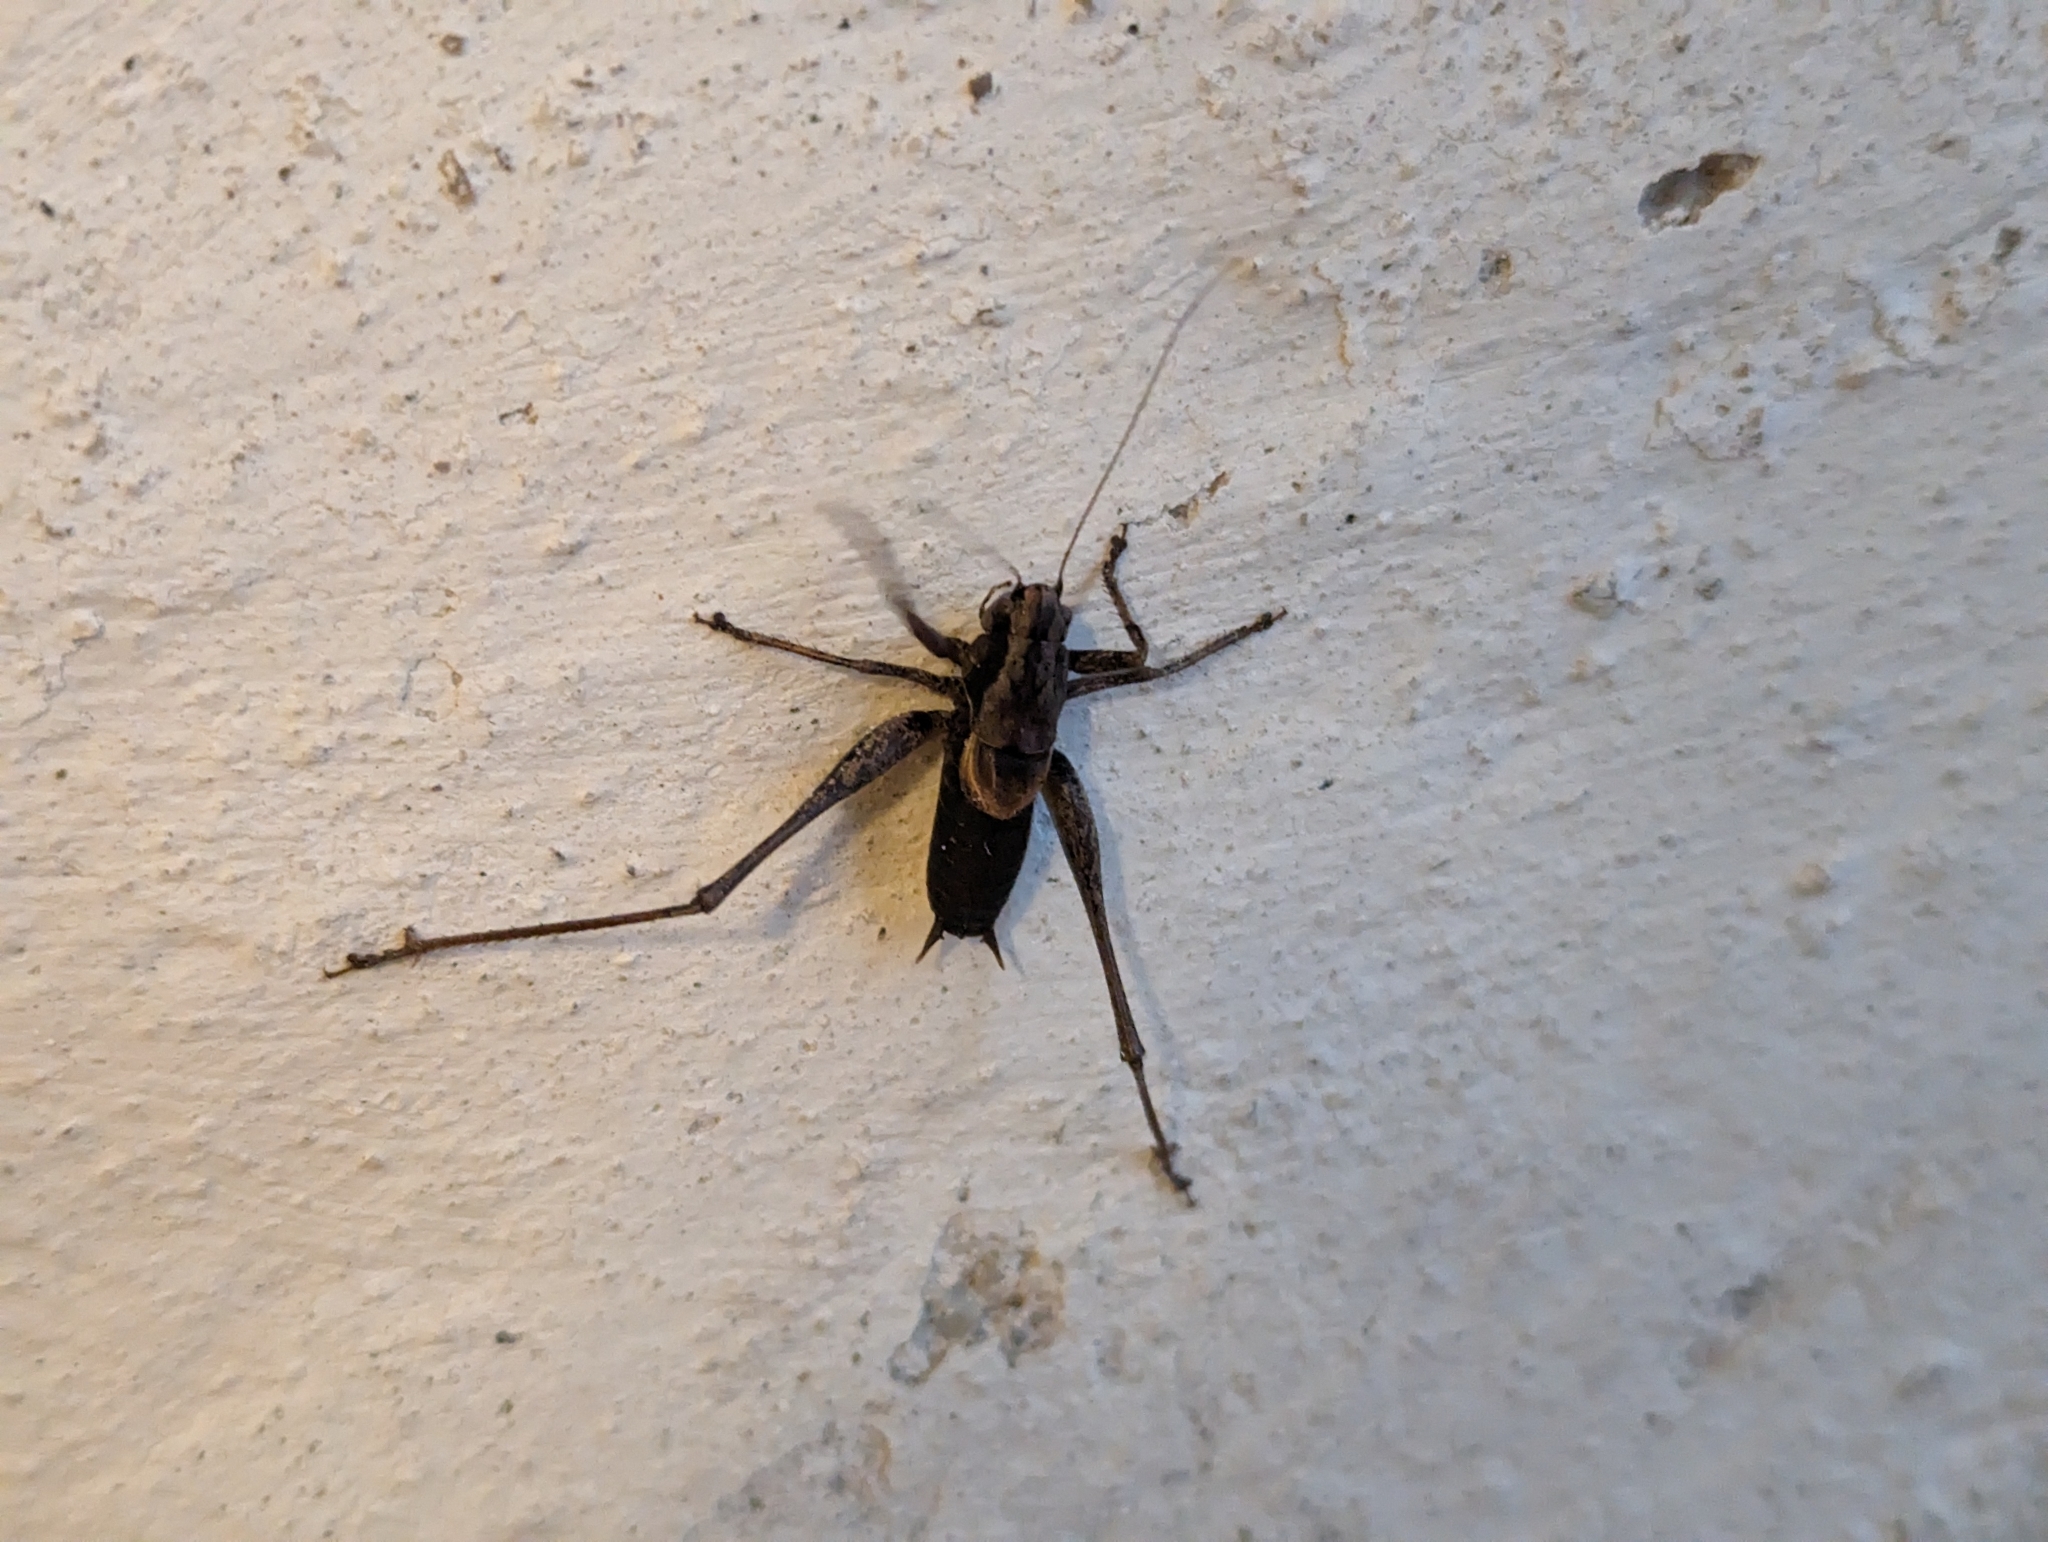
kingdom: Animalia
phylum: Arthropoda
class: Insecta
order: Orthoptera
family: Tettigoniidae
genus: Pholidoptera
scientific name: Pholidoptera griseoaptera
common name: Dark bush-cricket
